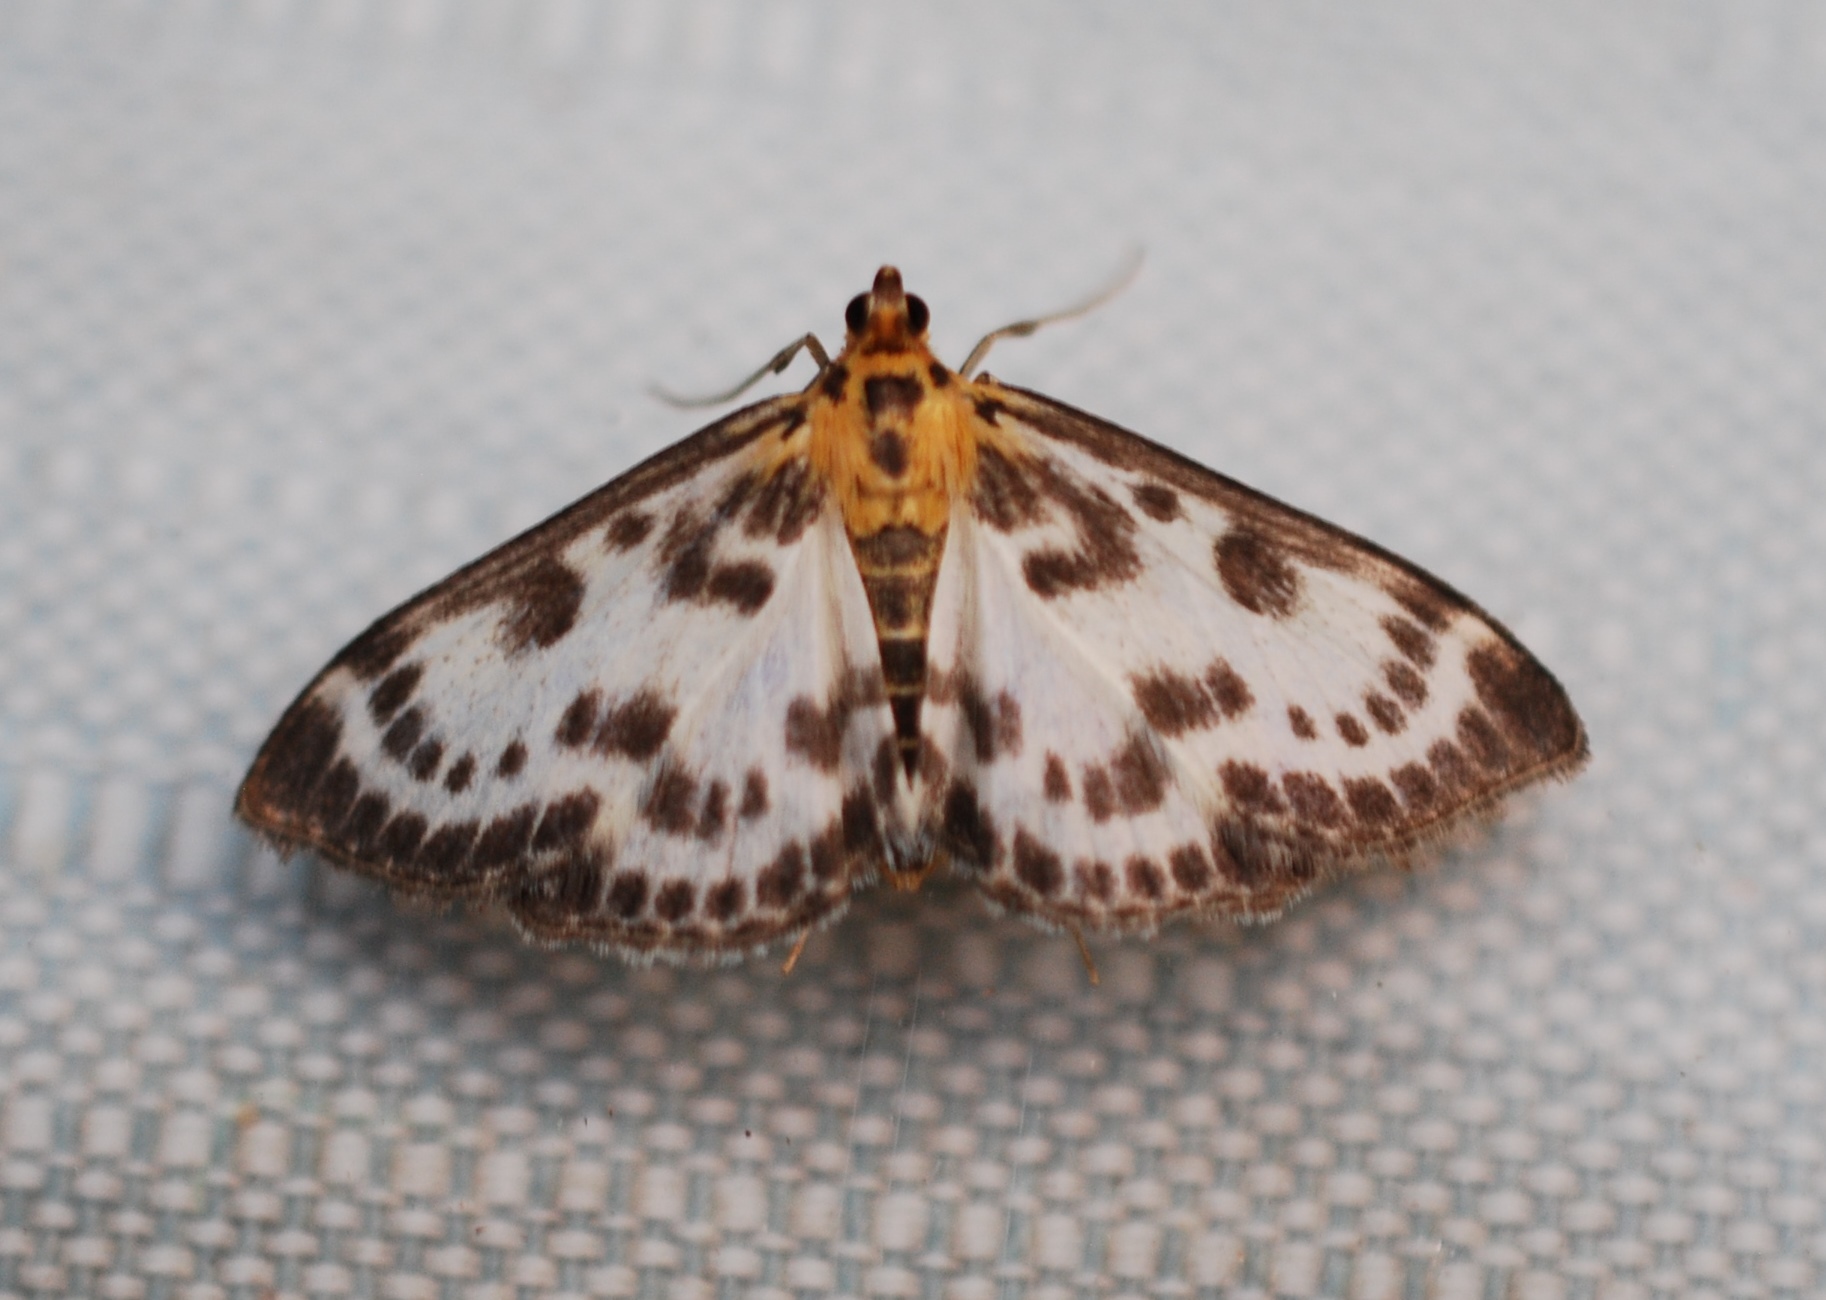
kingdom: Animalia
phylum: Arthropoda
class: Insecta
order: Lepidoptera
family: Crambidae
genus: Anania
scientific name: Anania hortulata
